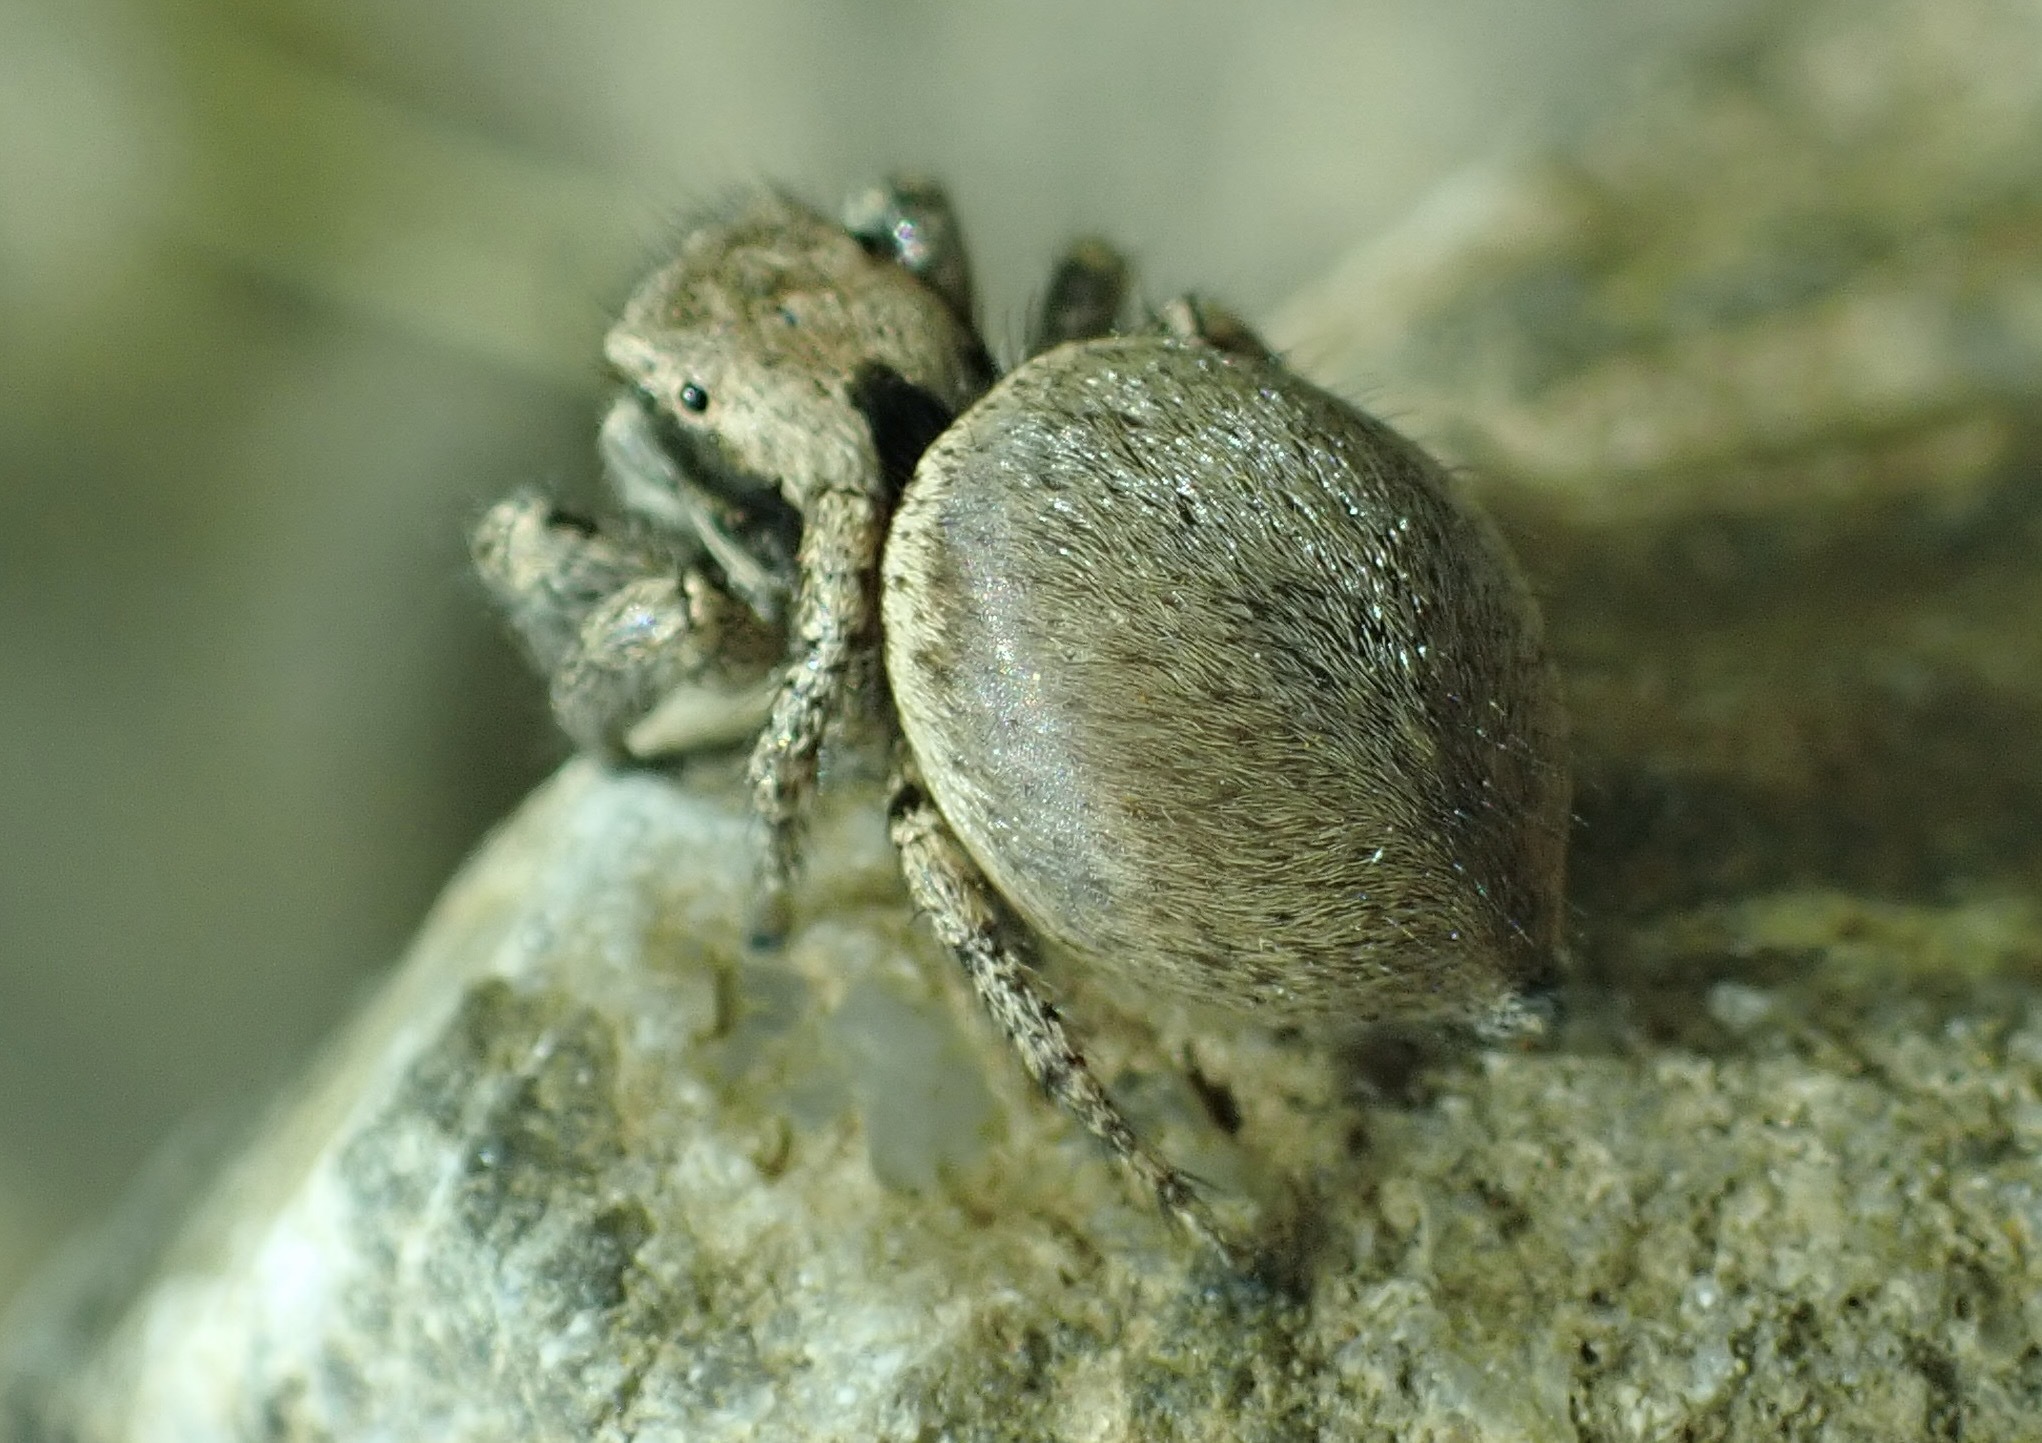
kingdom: Animalia
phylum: Arthropoda
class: Insecta
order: Lepidoptera
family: Hesperiidae
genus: Heliopetes
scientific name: Heliopetes ericetorum
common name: Northern white-skipper
